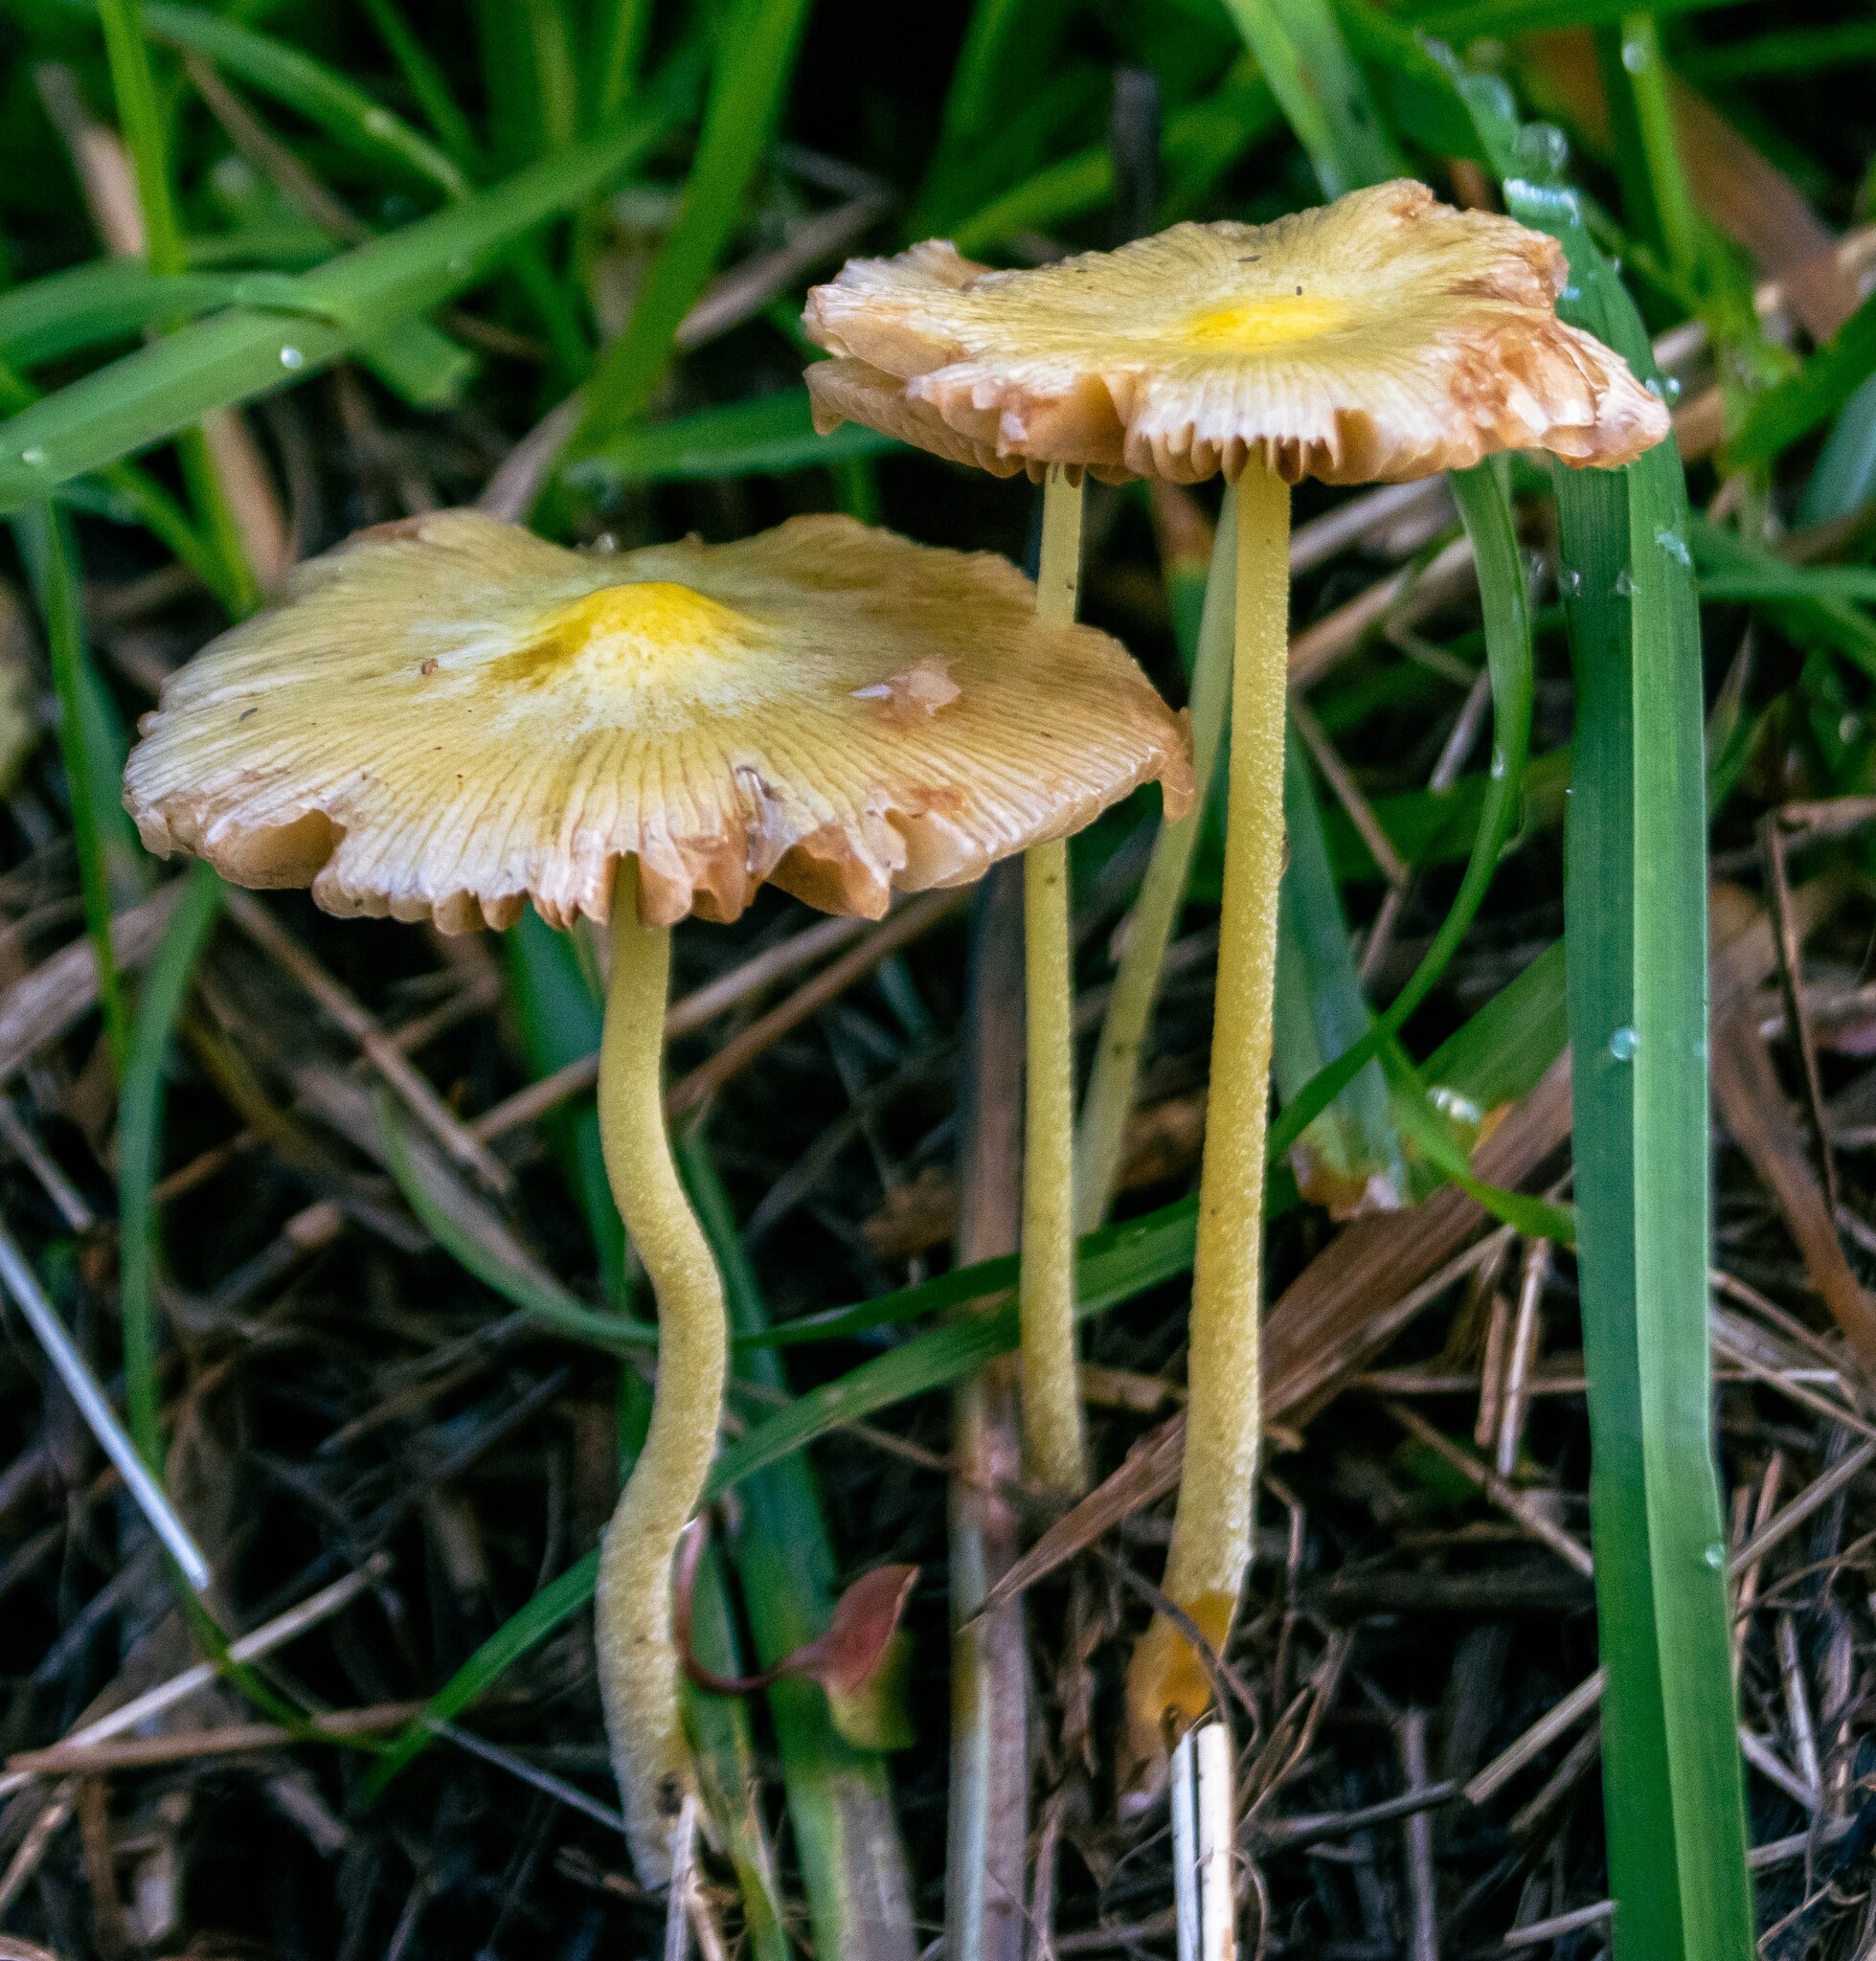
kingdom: Fungi
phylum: Basidiomycota
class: Agaricomycetes
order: Agaricales
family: Bolbitiaceae
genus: Bolbitius
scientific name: Bolbitius titubans
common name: Yellow fieldcap
